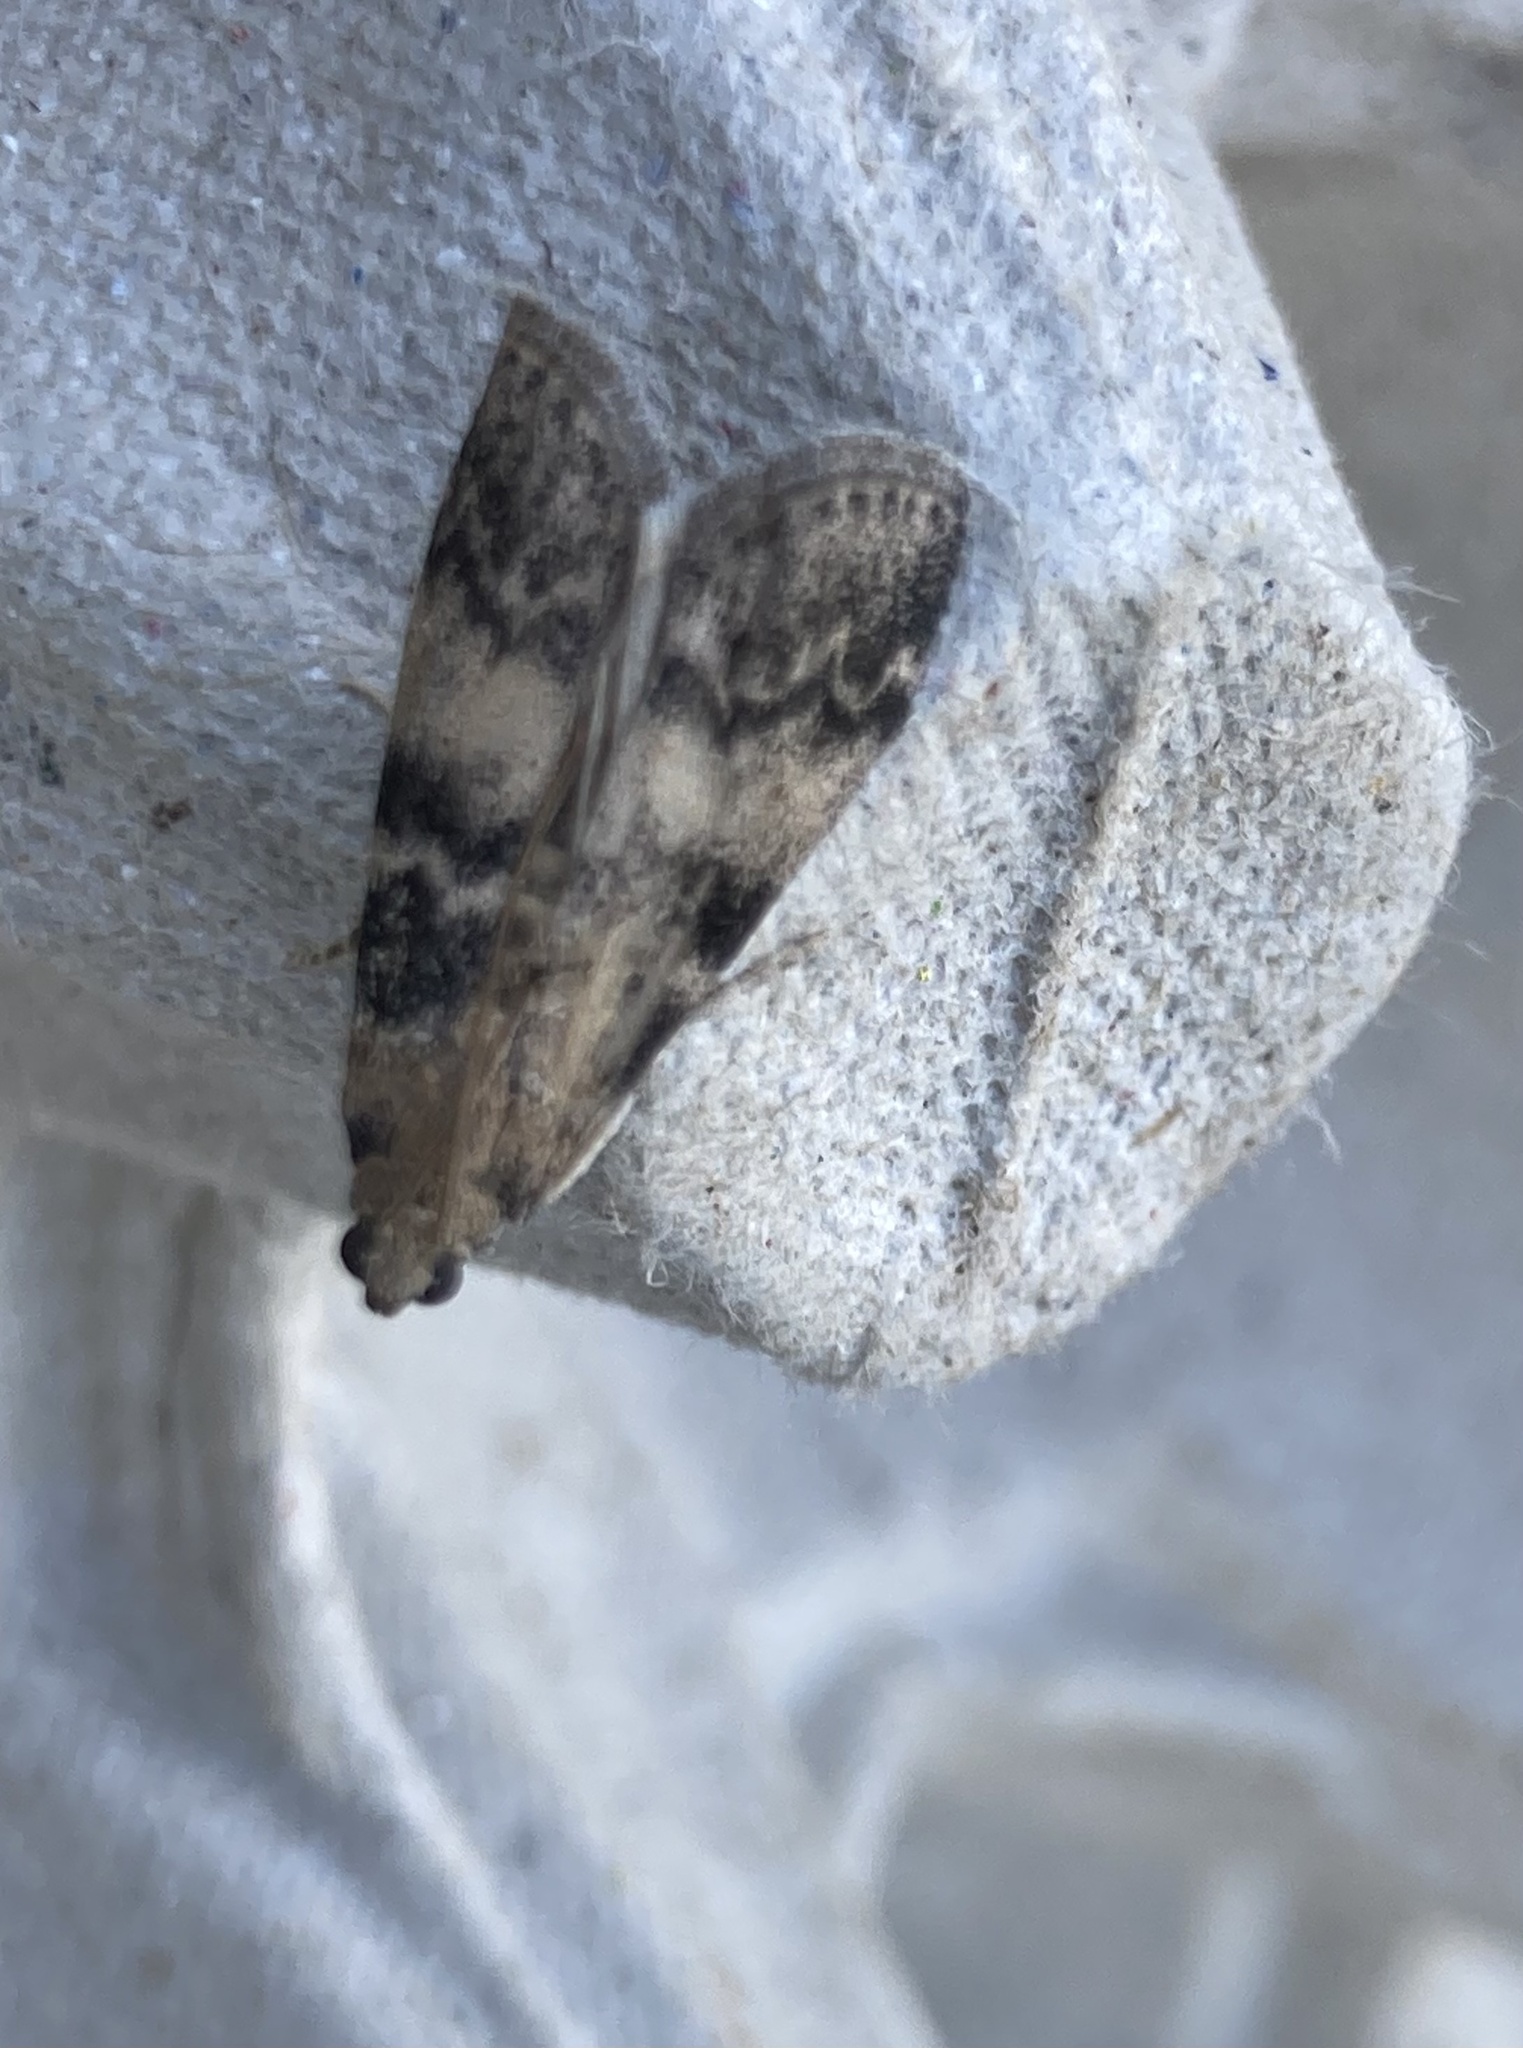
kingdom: Animalia
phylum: Arthropoda
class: Insecta
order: Lepidoptera
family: Pyralidae
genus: Euzophera
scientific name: Euzophera pinguis
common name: Ash-bark knot-horn
